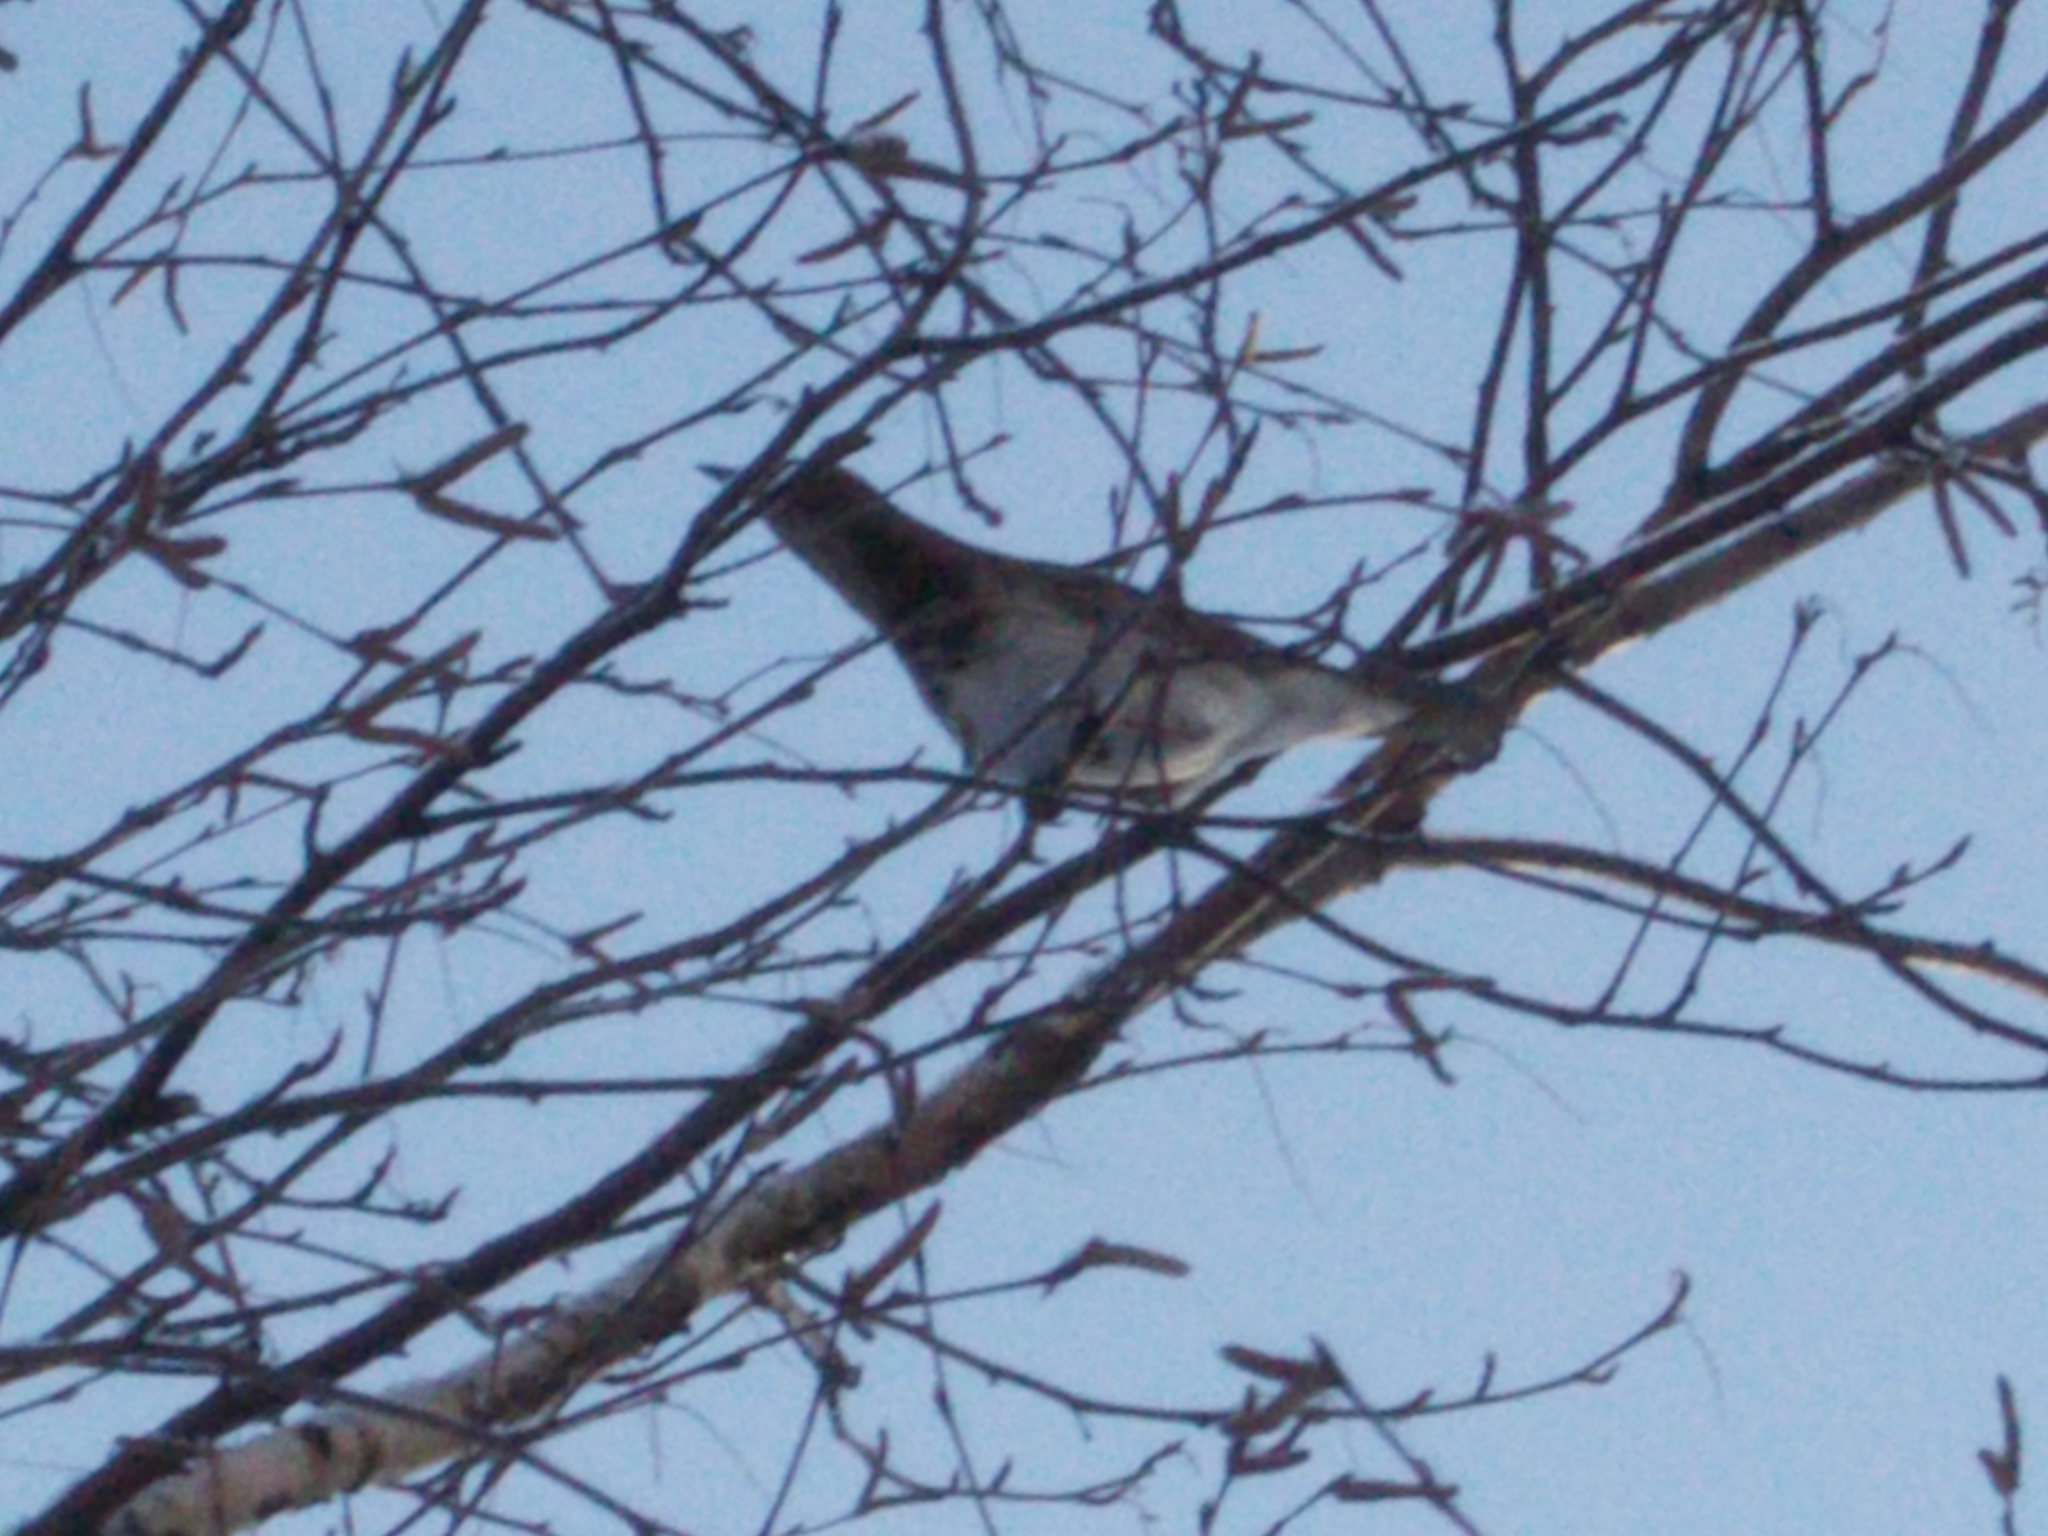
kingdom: Animalia
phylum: Chordata
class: Aves
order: Passeriformes
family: Turdidae
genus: Turdus
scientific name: Turdus atrogularis
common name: Black-throated thrush
